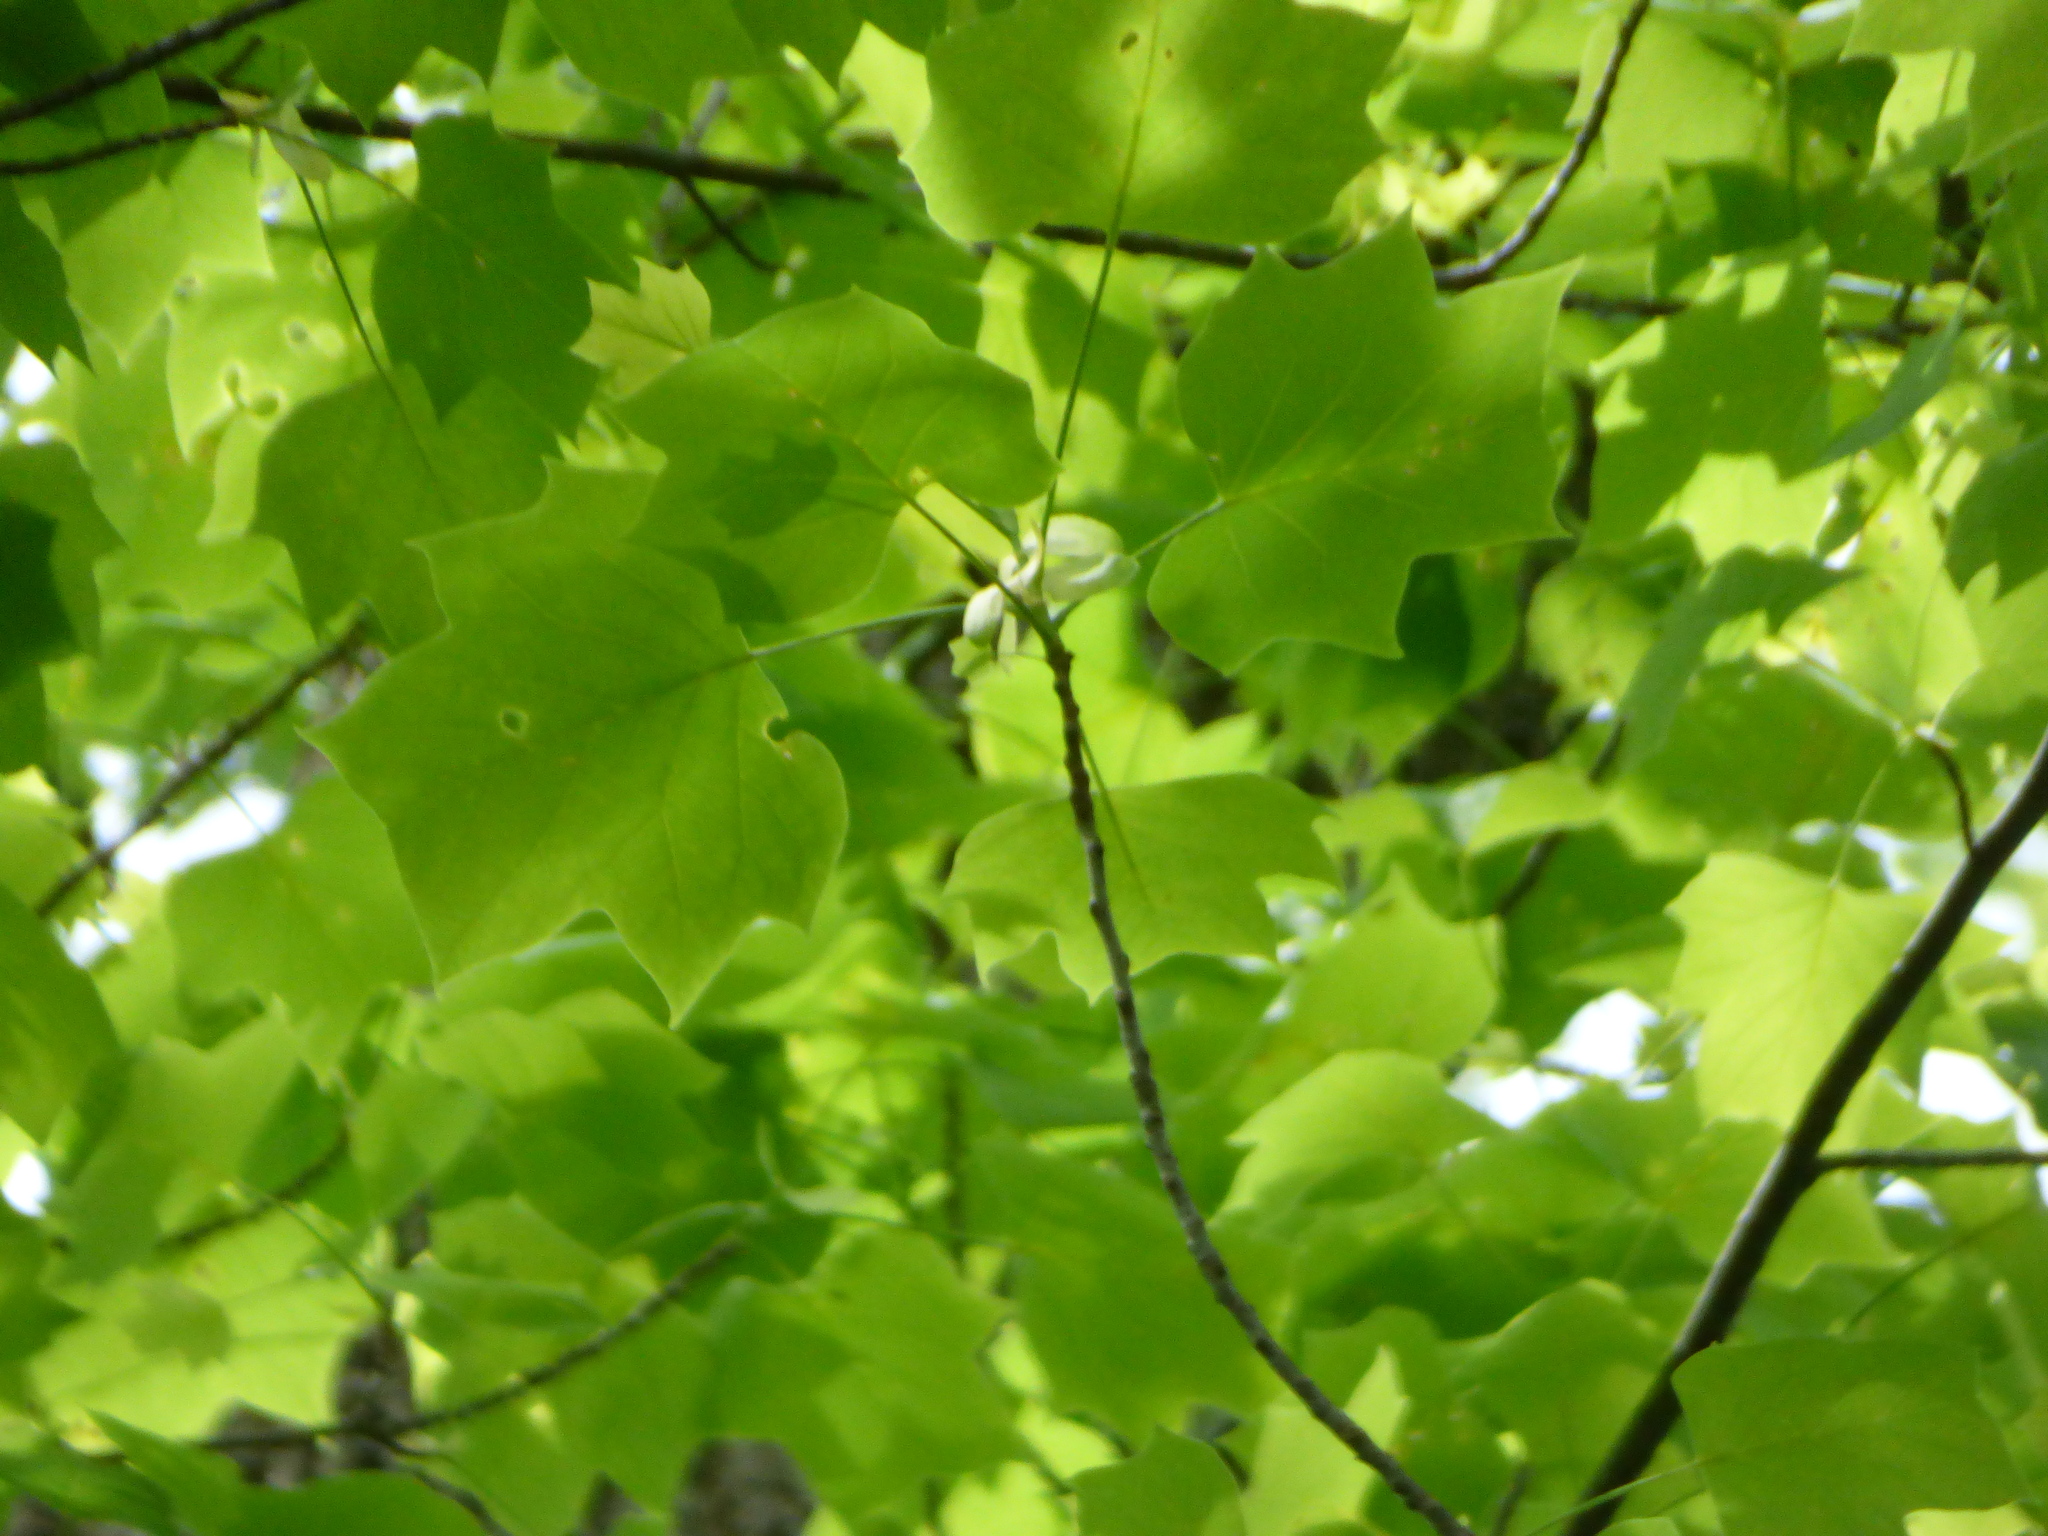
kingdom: Plantae
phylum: Tracheophyta
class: Magnoliopsida
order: Magnoliales
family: Magnoliaceae
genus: Liriodendron
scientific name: Liriodendron tulipifera
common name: Tulip tree
